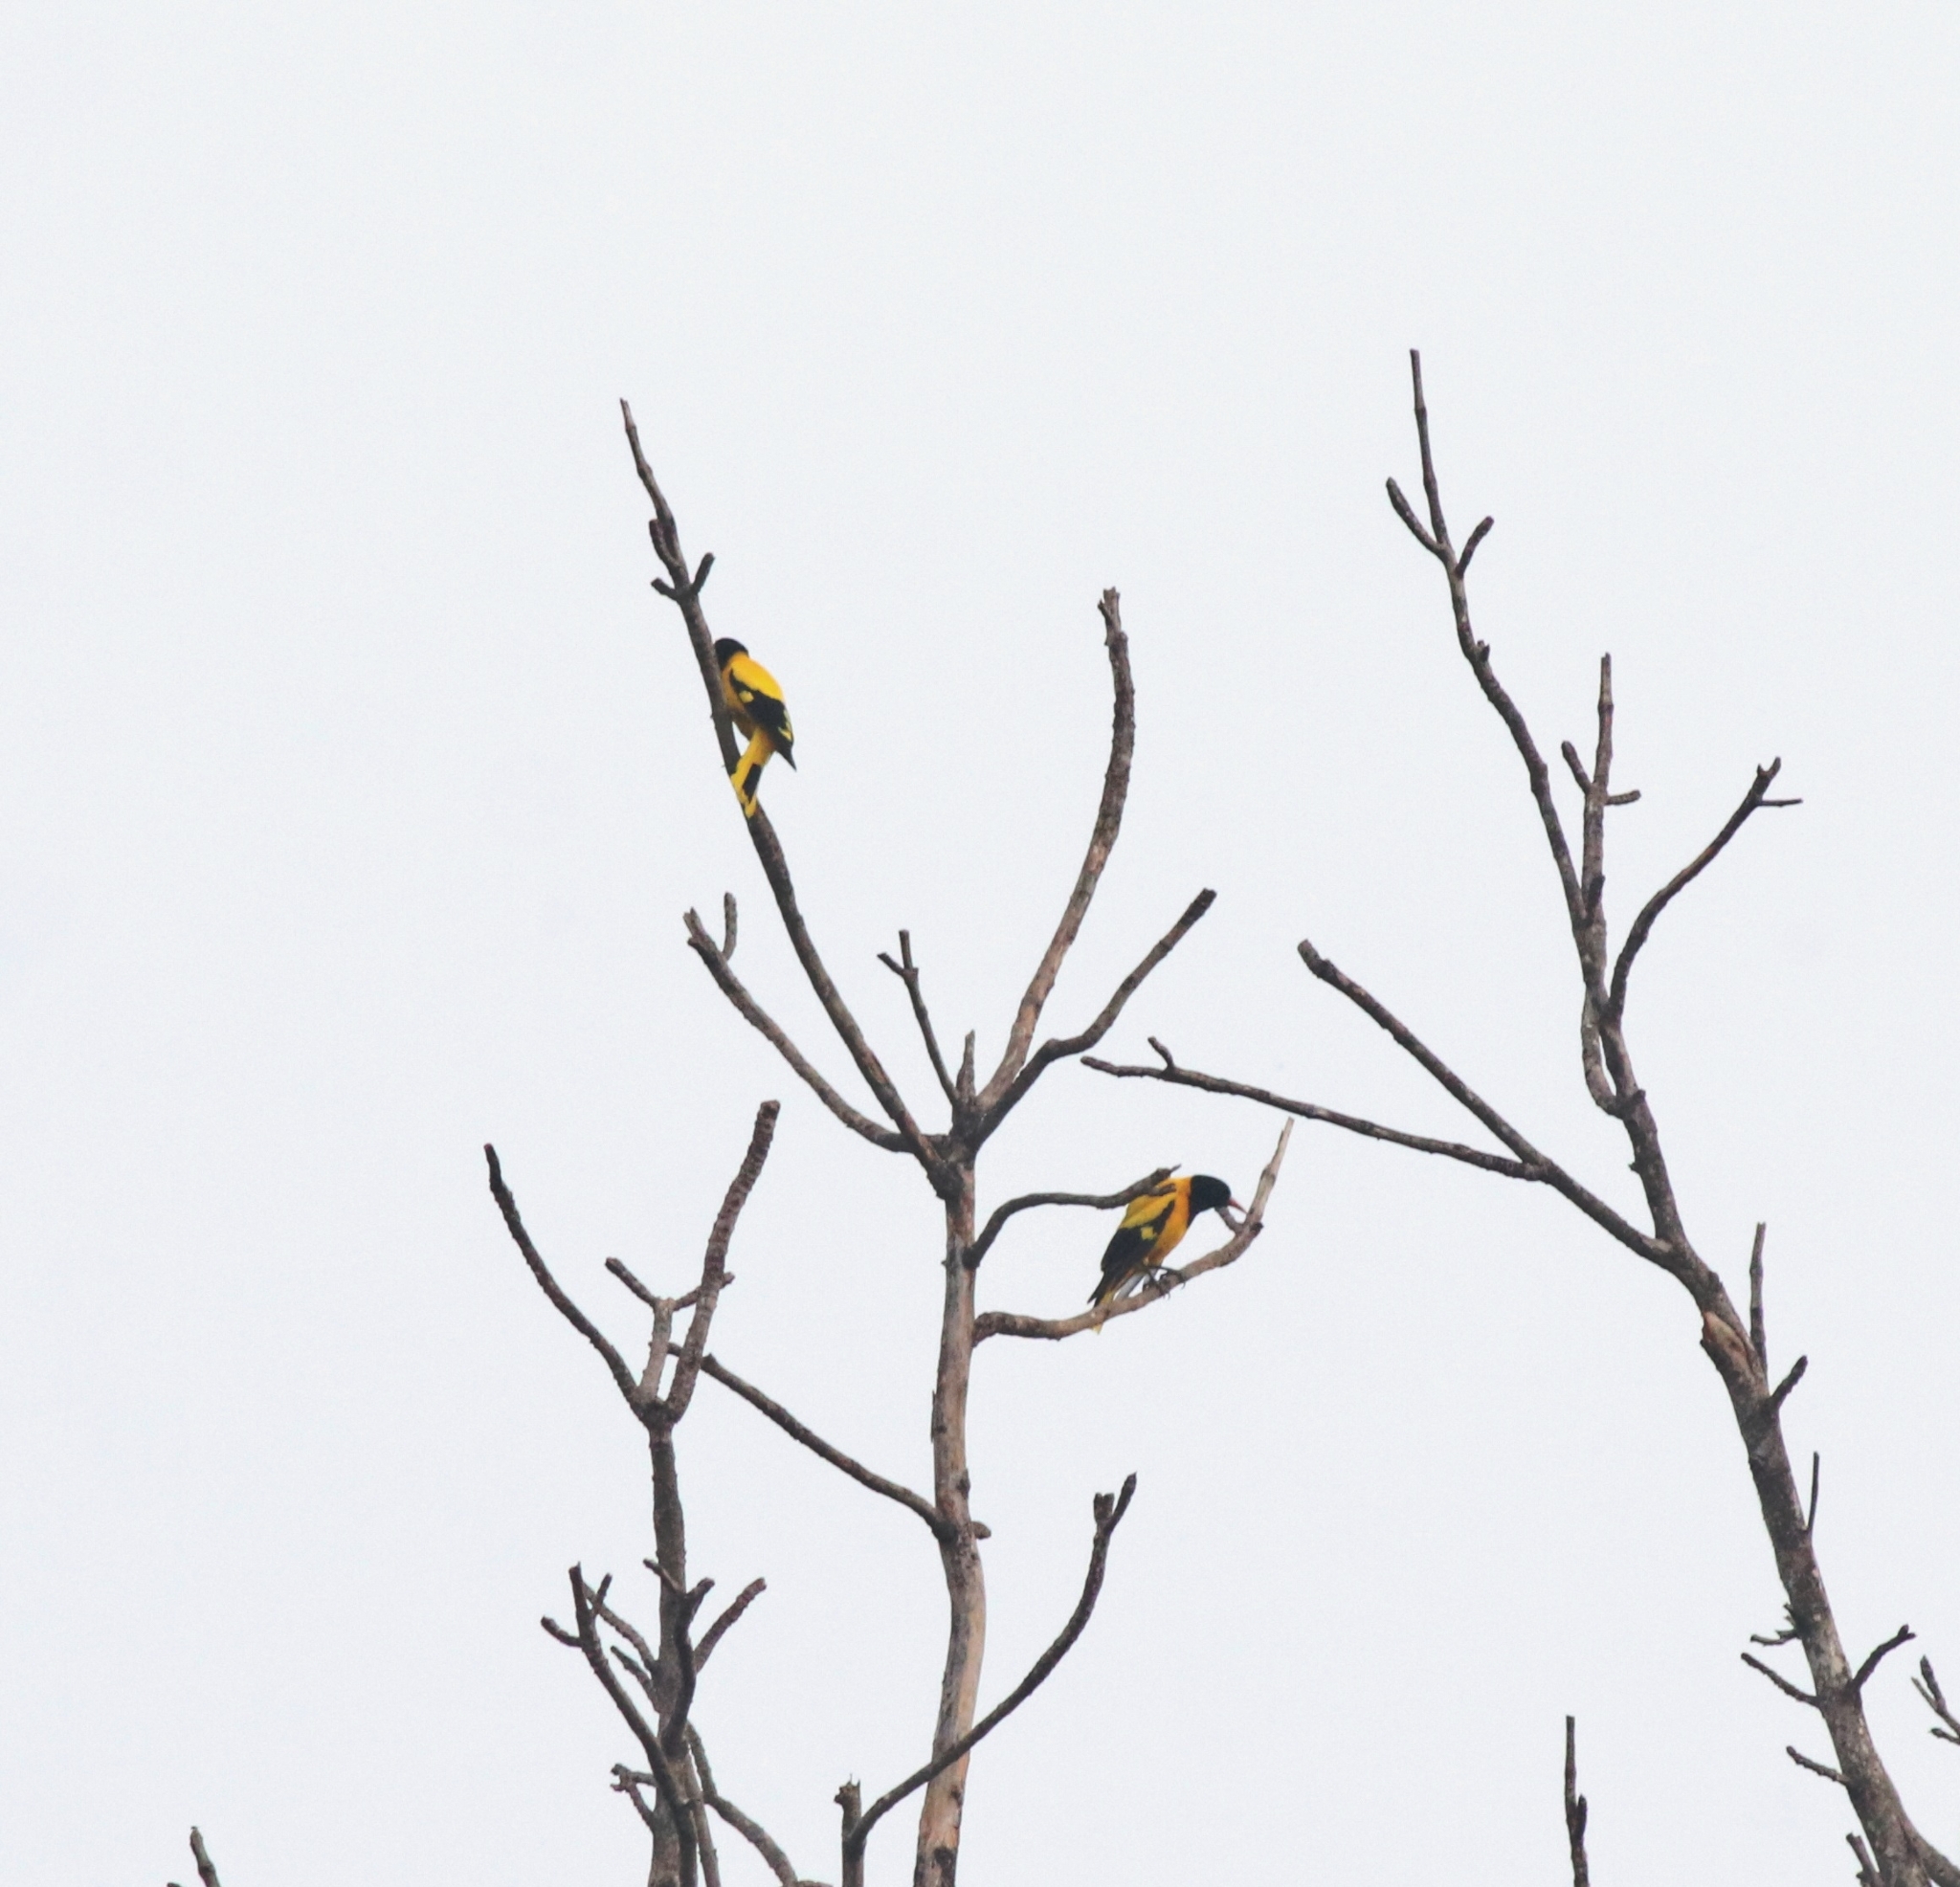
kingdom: Animalia
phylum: Chordata
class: Aves
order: Passeriformes
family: Oriolidae
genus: Oriolus
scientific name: Oriolus xanthornus
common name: Black-hooded oriole
